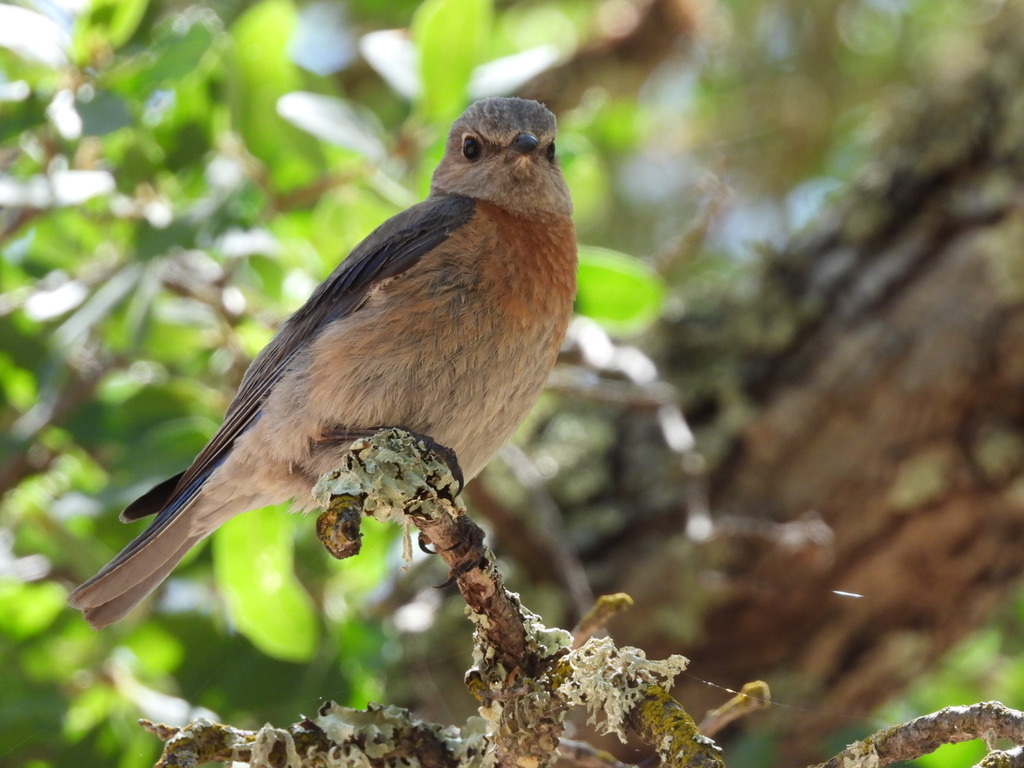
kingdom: Animalia
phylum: Chordata
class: Aves
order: Passeriformes
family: Turdidae
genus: Sialia
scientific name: Sialia mexicana
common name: Western bluebird
